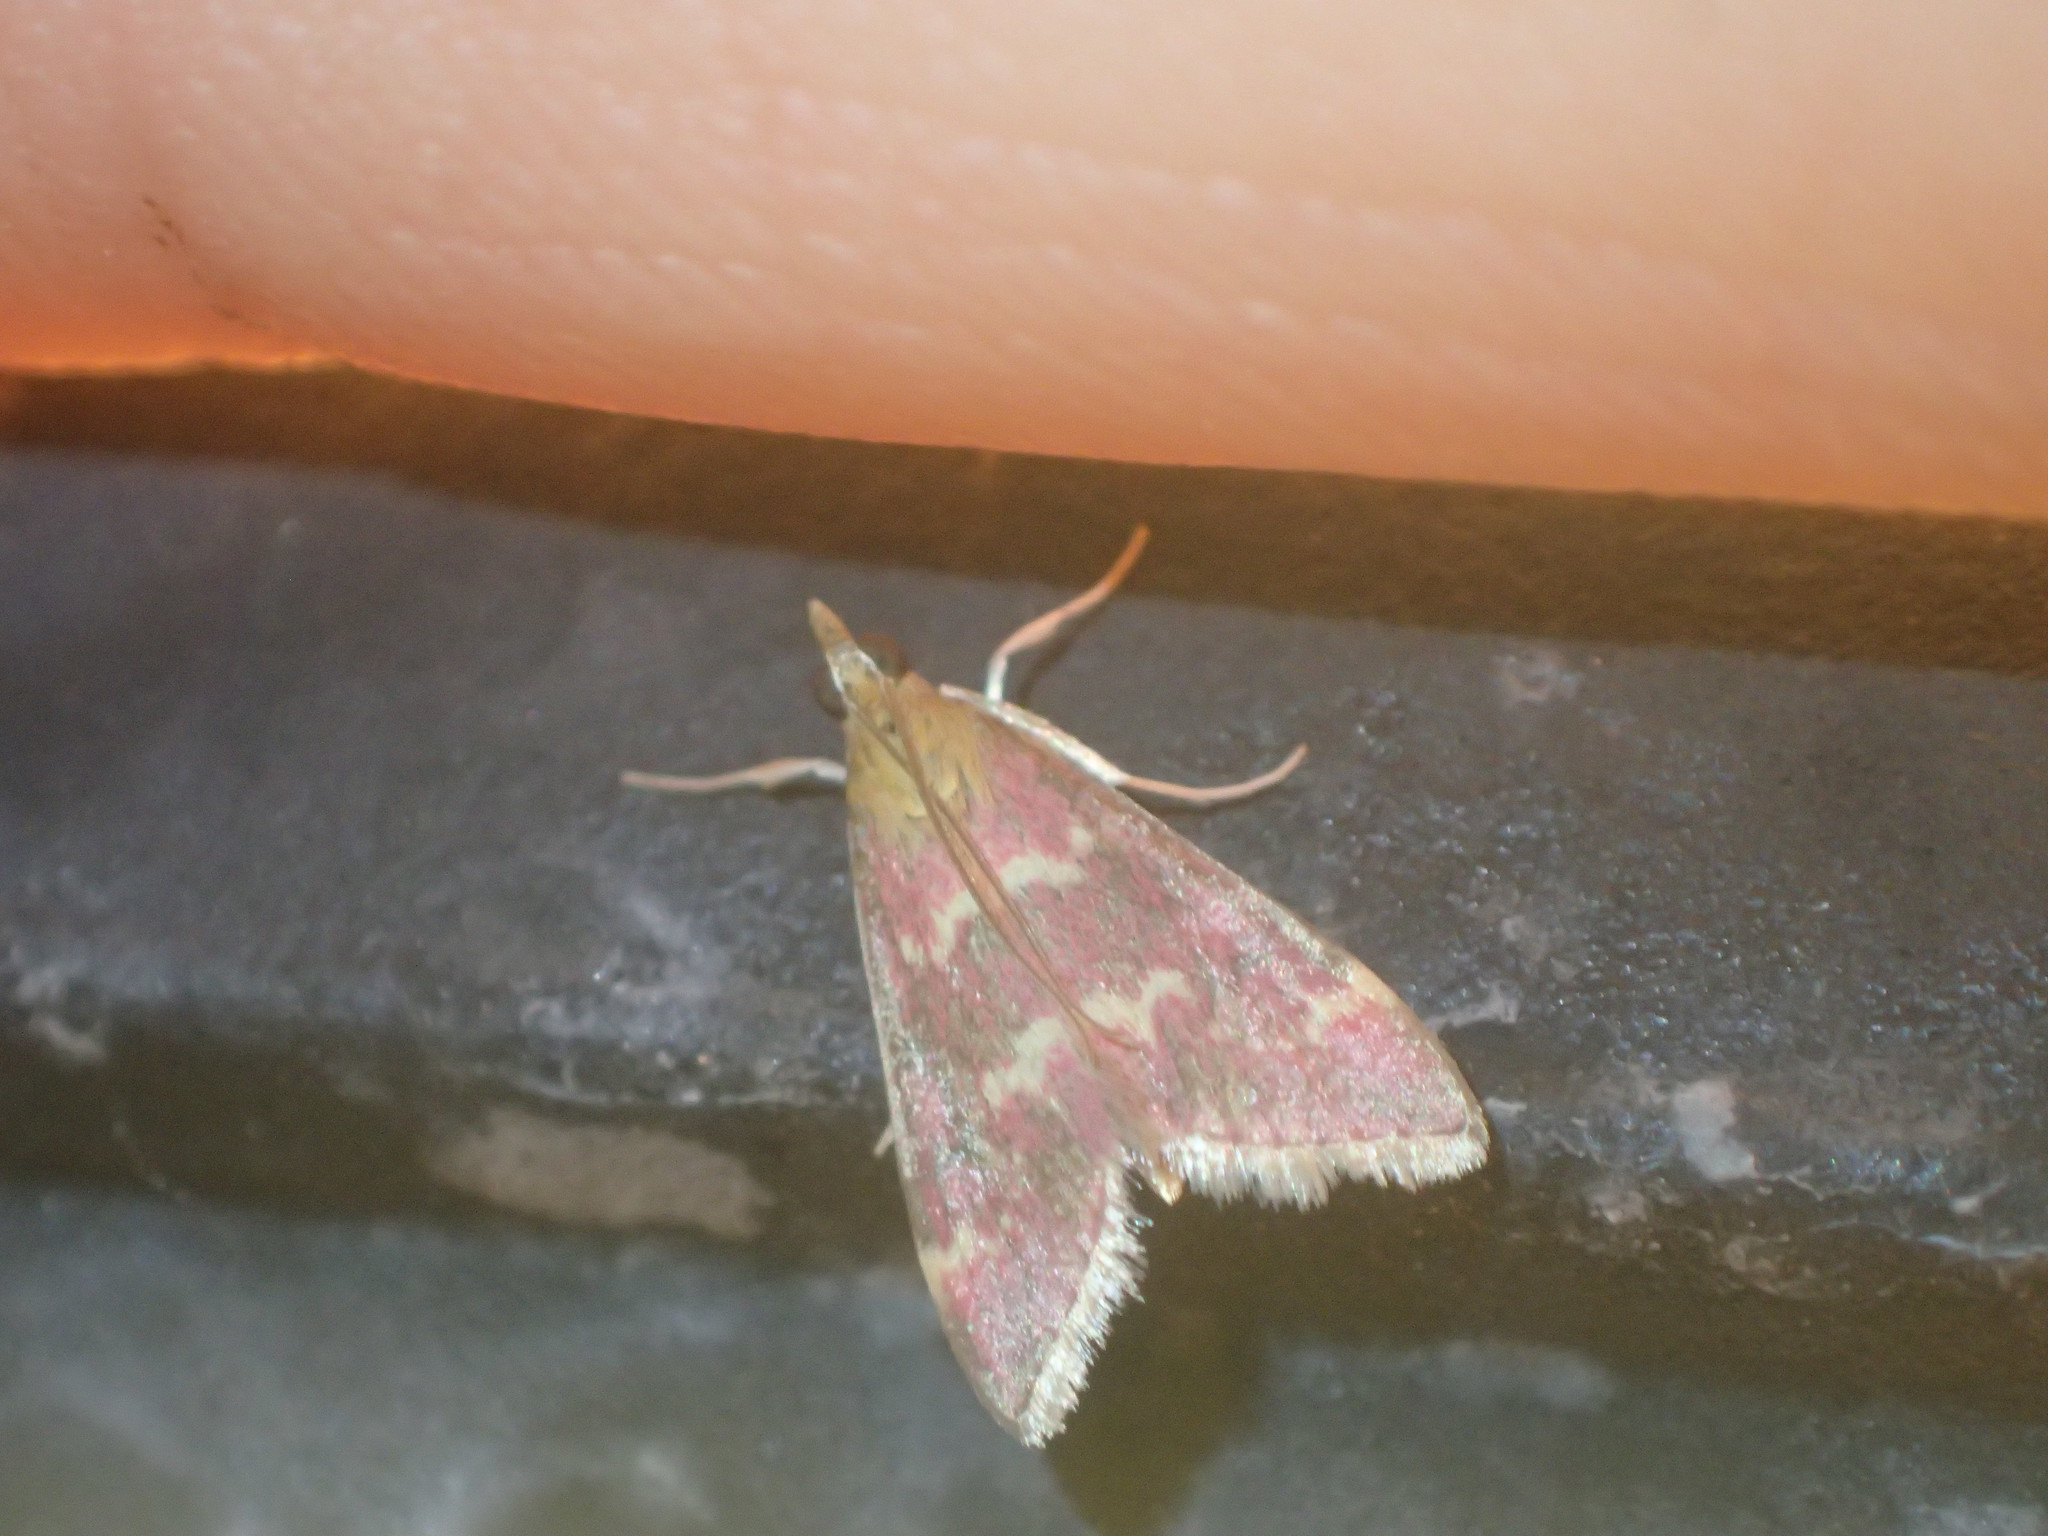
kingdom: Animalia
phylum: Arthropoda
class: Insecta
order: Lepidoptera
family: Crambidae
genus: Pyrausta
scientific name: Pyrausta signatalis
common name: Raspberry pyrausta moth
